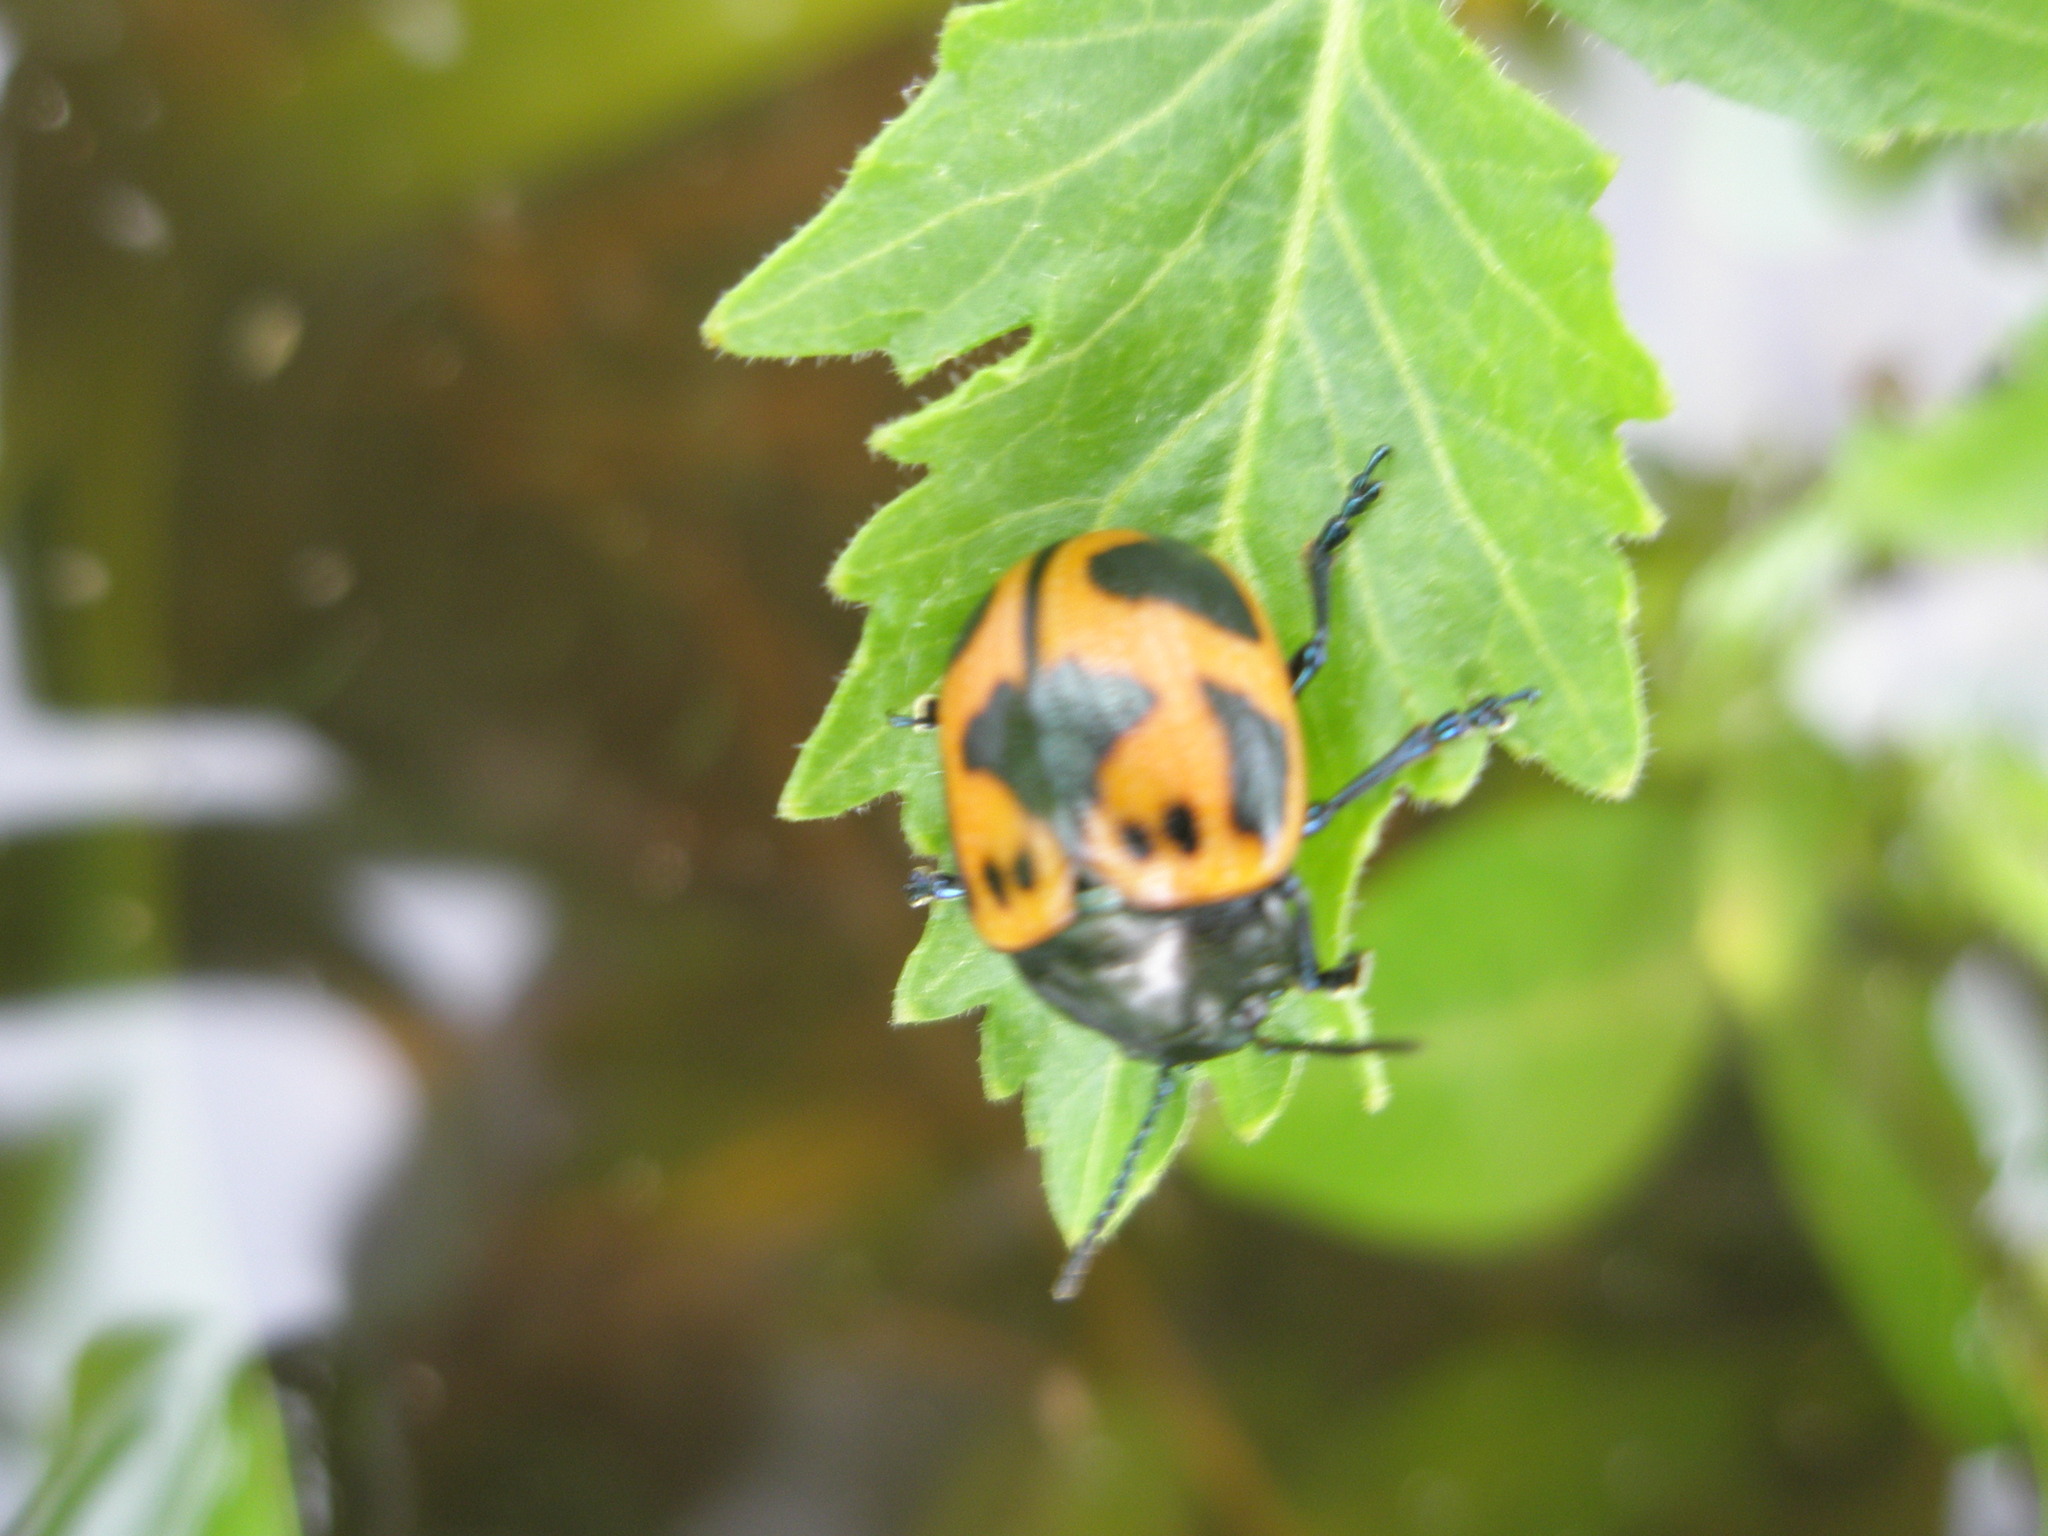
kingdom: Animalia
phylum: Arthropoda
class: Insecta
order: Coleoptera
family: Chrysomelidae
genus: Labidomera
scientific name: Labidomera clivicollis
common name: Swamp milkweed leaf beetle
